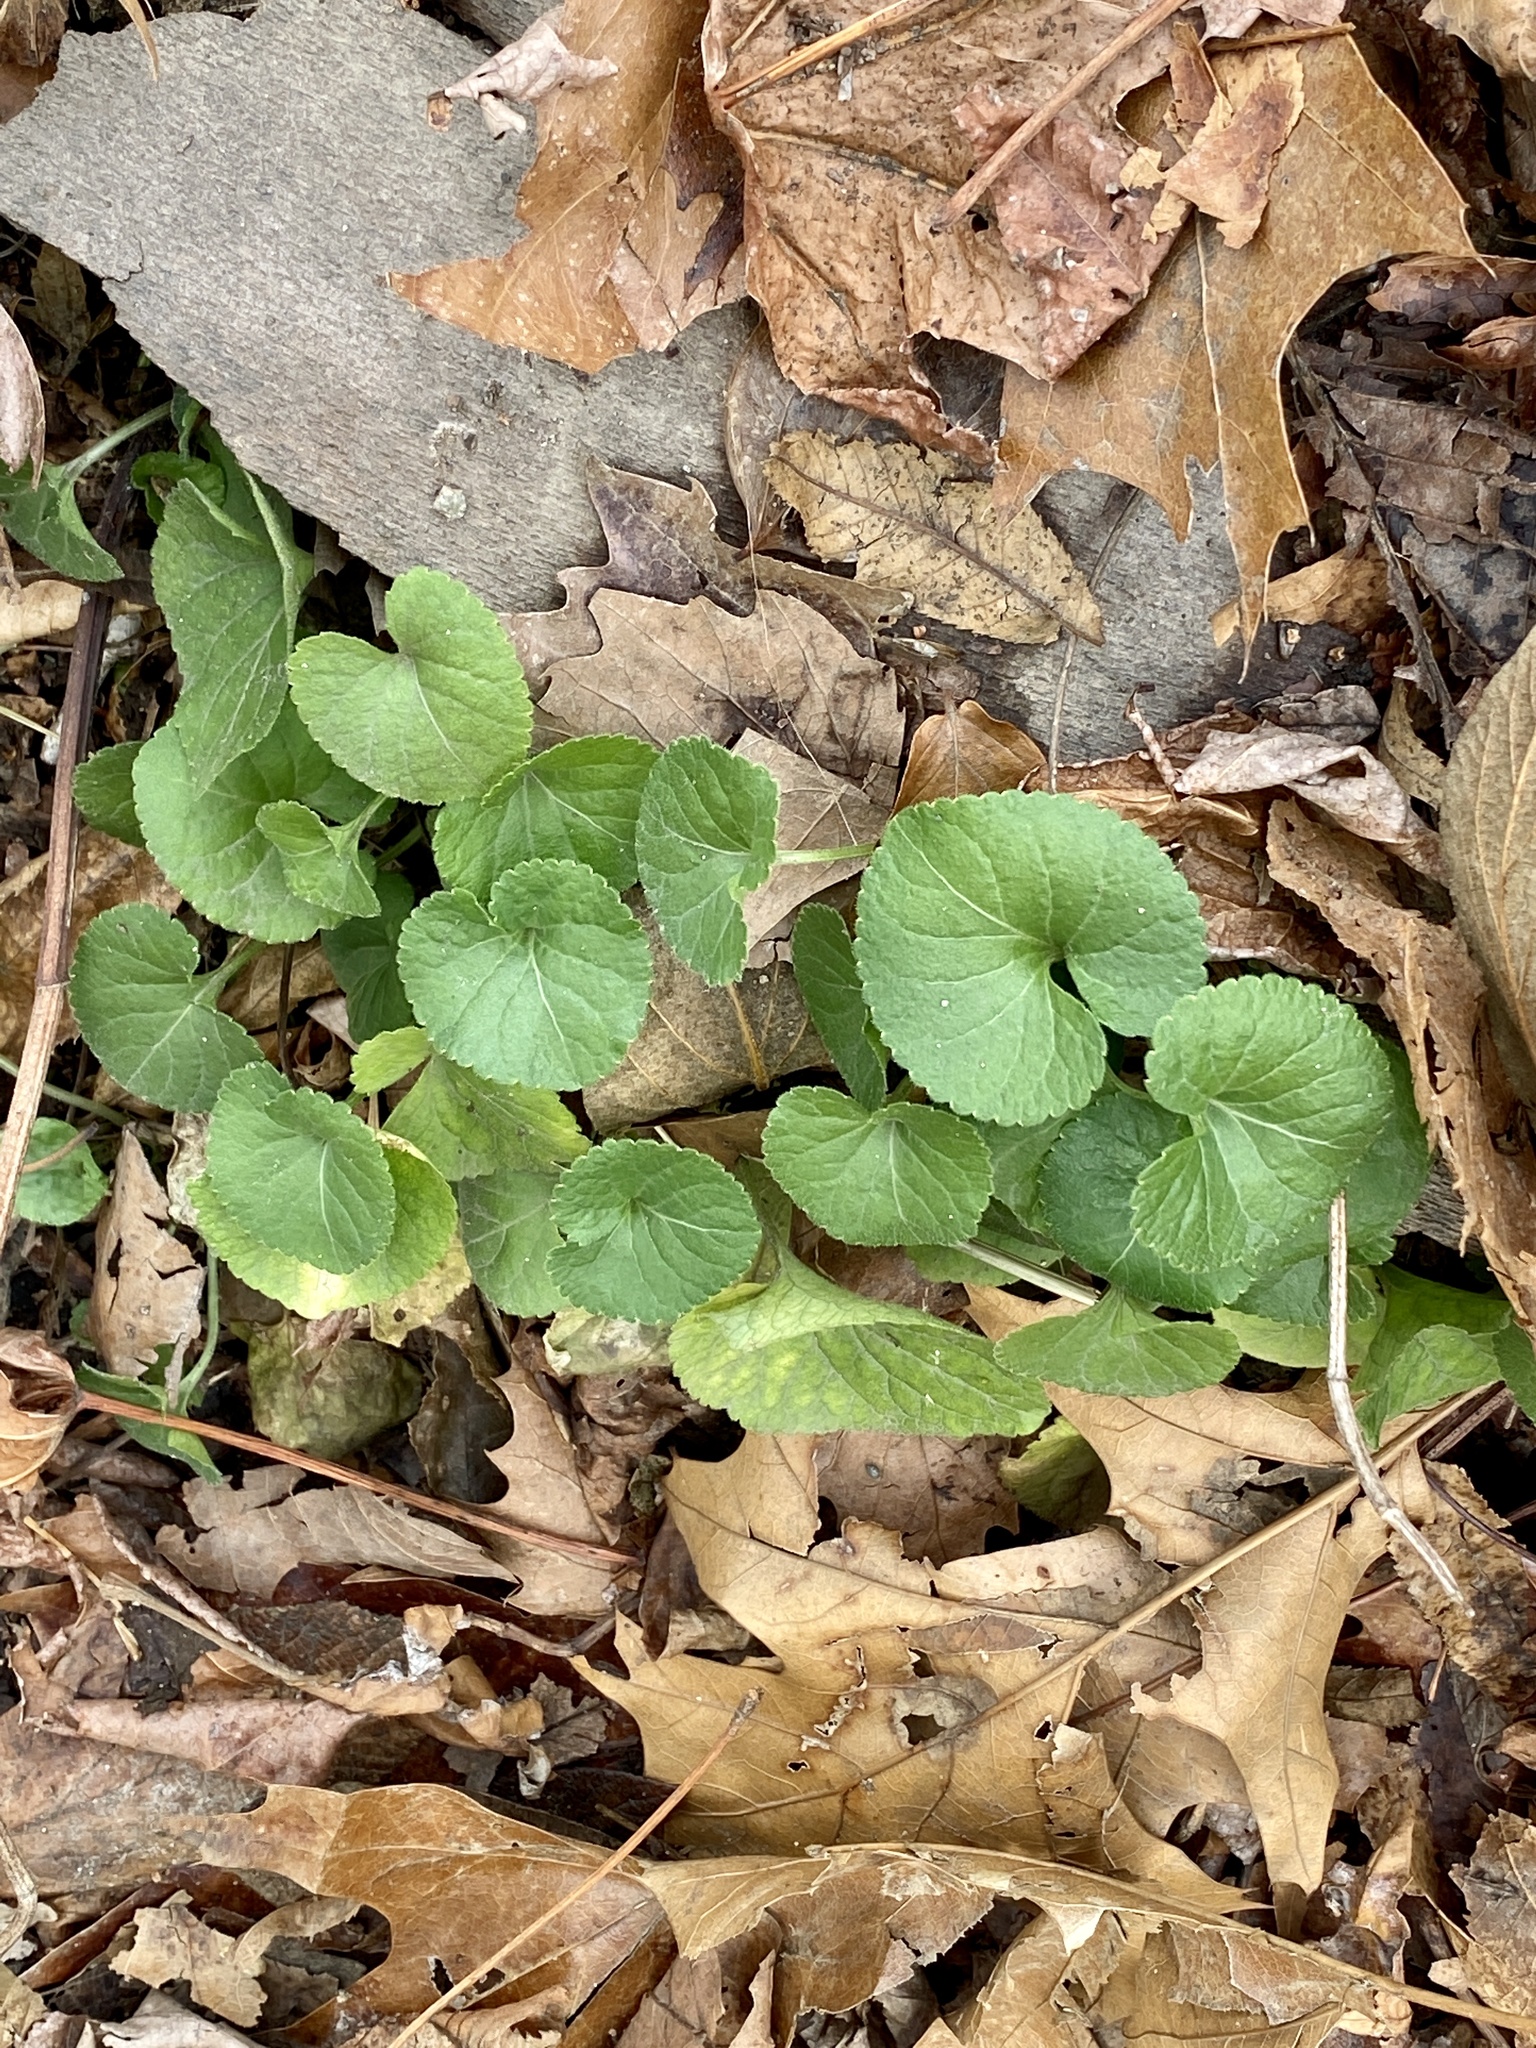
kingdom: Plantae
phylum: Tracheophyta
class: Magnoliopsida
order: Malpighiales
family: Violaceae
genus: Viola
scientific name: Viola
